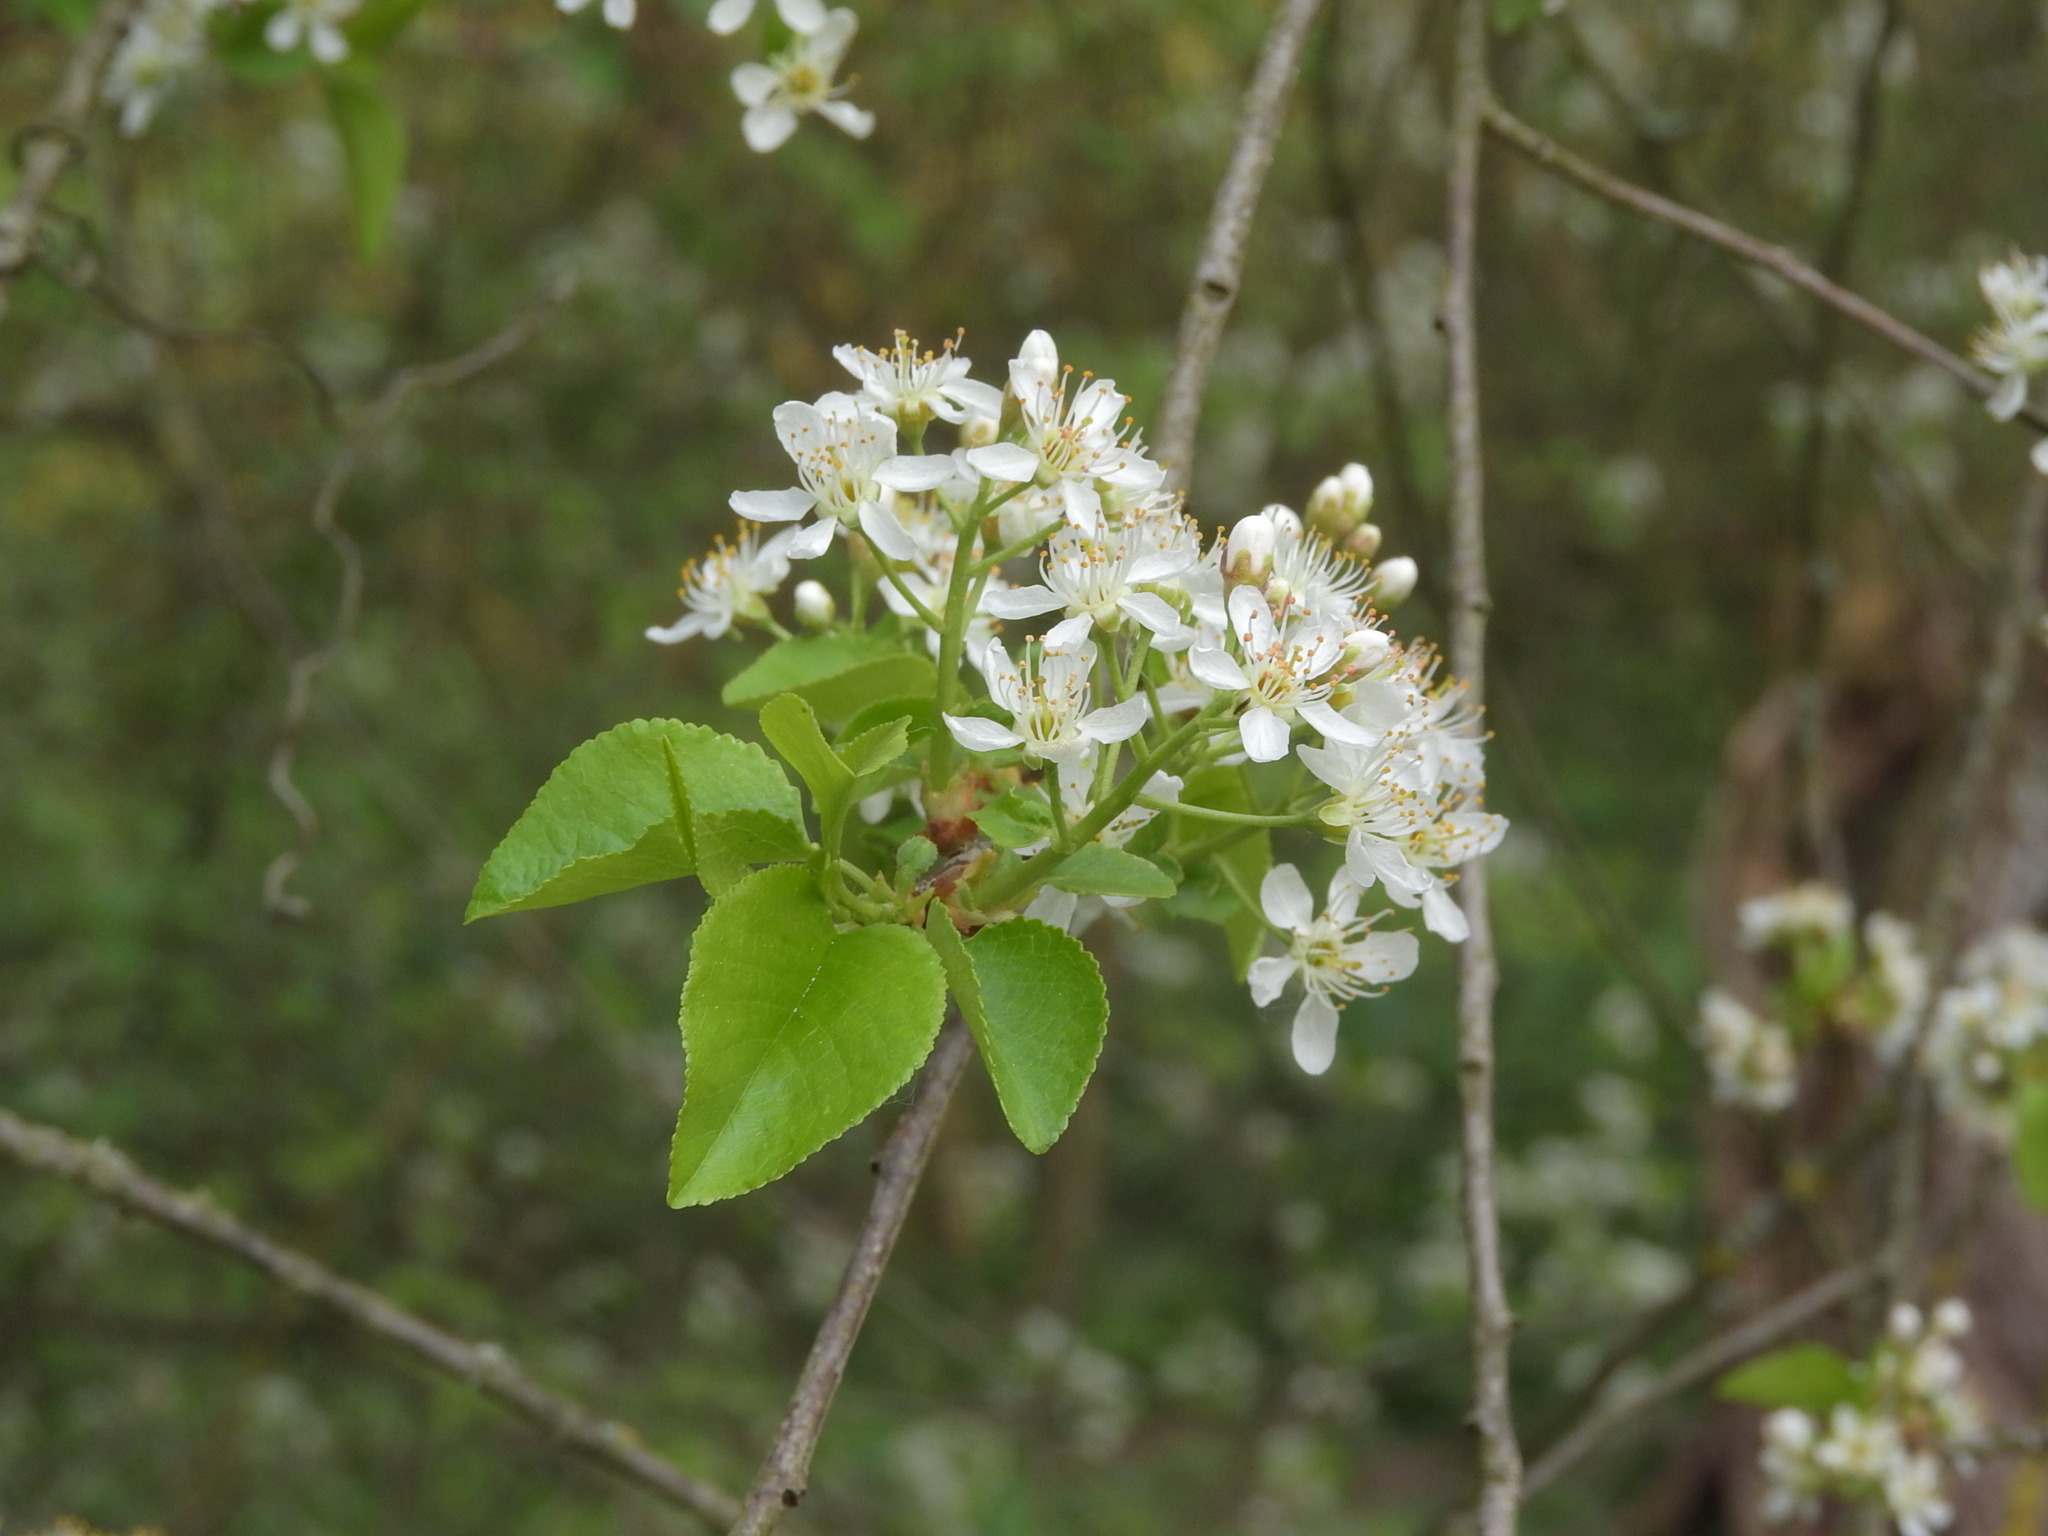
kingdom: Plantae
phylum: Tracheophyta
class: Magnoliopsida
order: Rosales
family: Rosaceae
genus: Prunus
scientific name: Prunus mahaleb
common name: Mahaleb cherry
